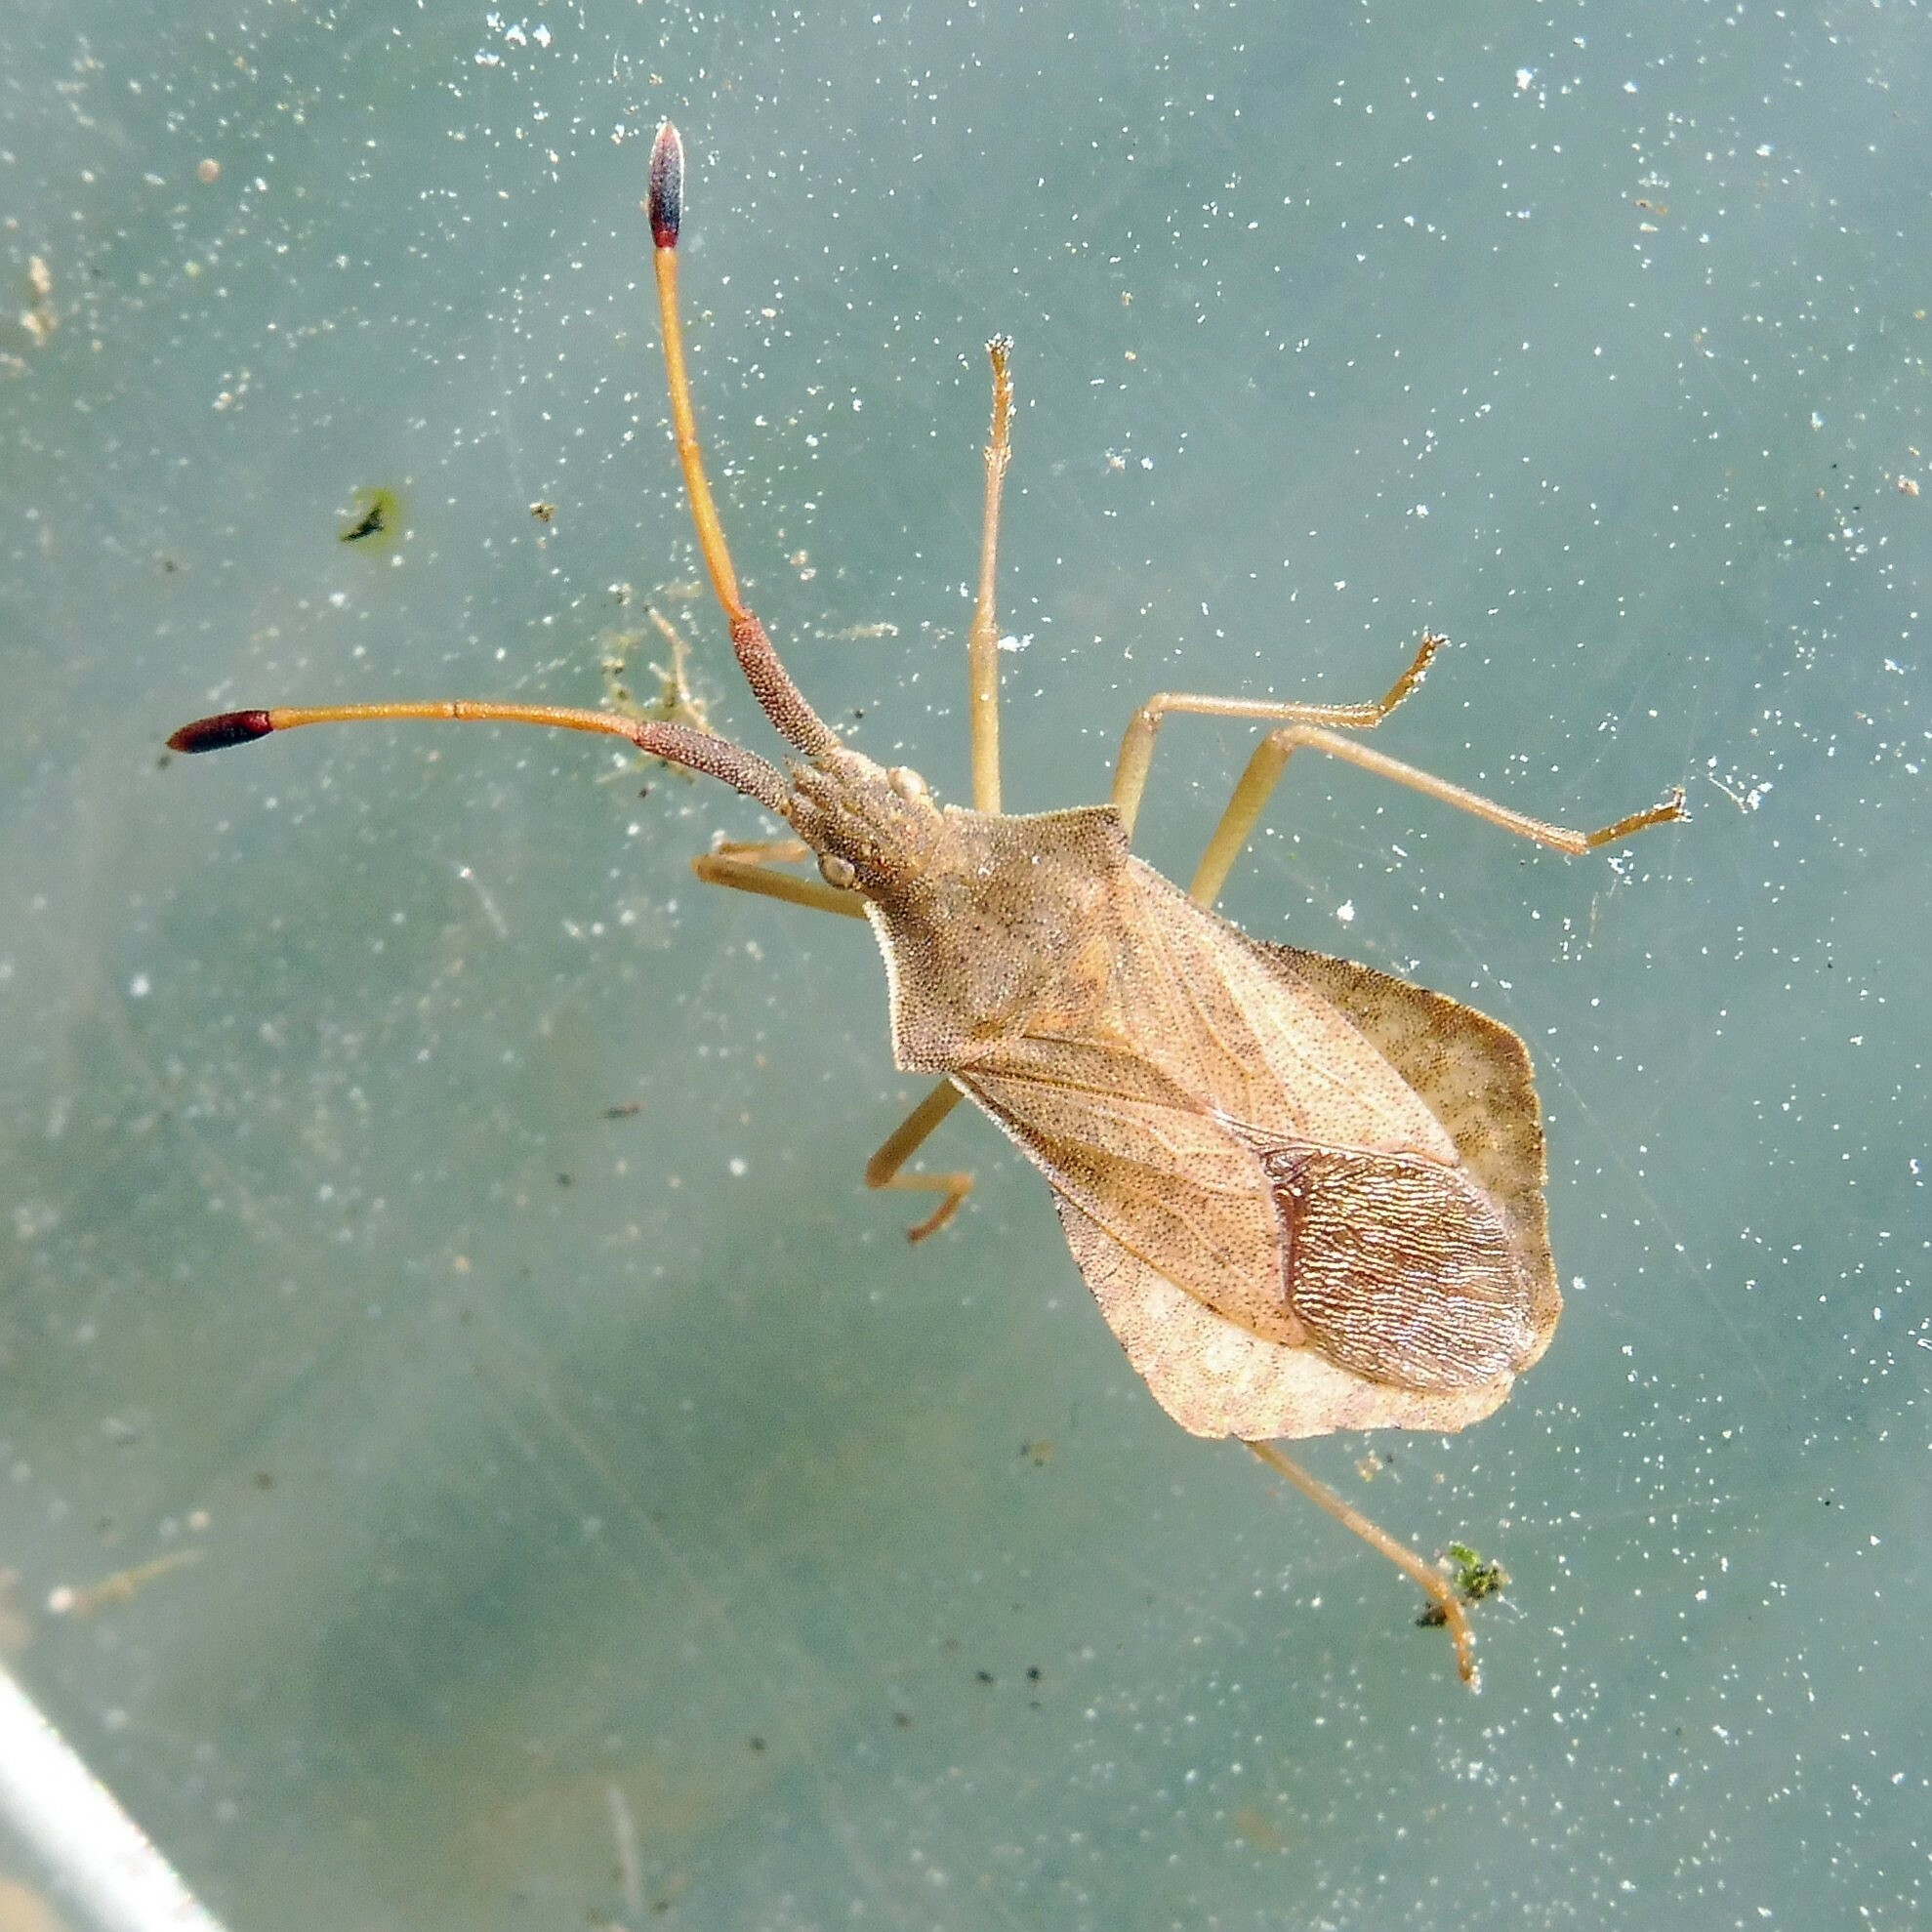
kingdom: Animalia
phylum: Arthropoda
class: Insecta
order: Hemiptera
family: Coreidae
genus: Syromastus
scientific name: Syromastus rhombeus
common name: Rhombic leatherbug
